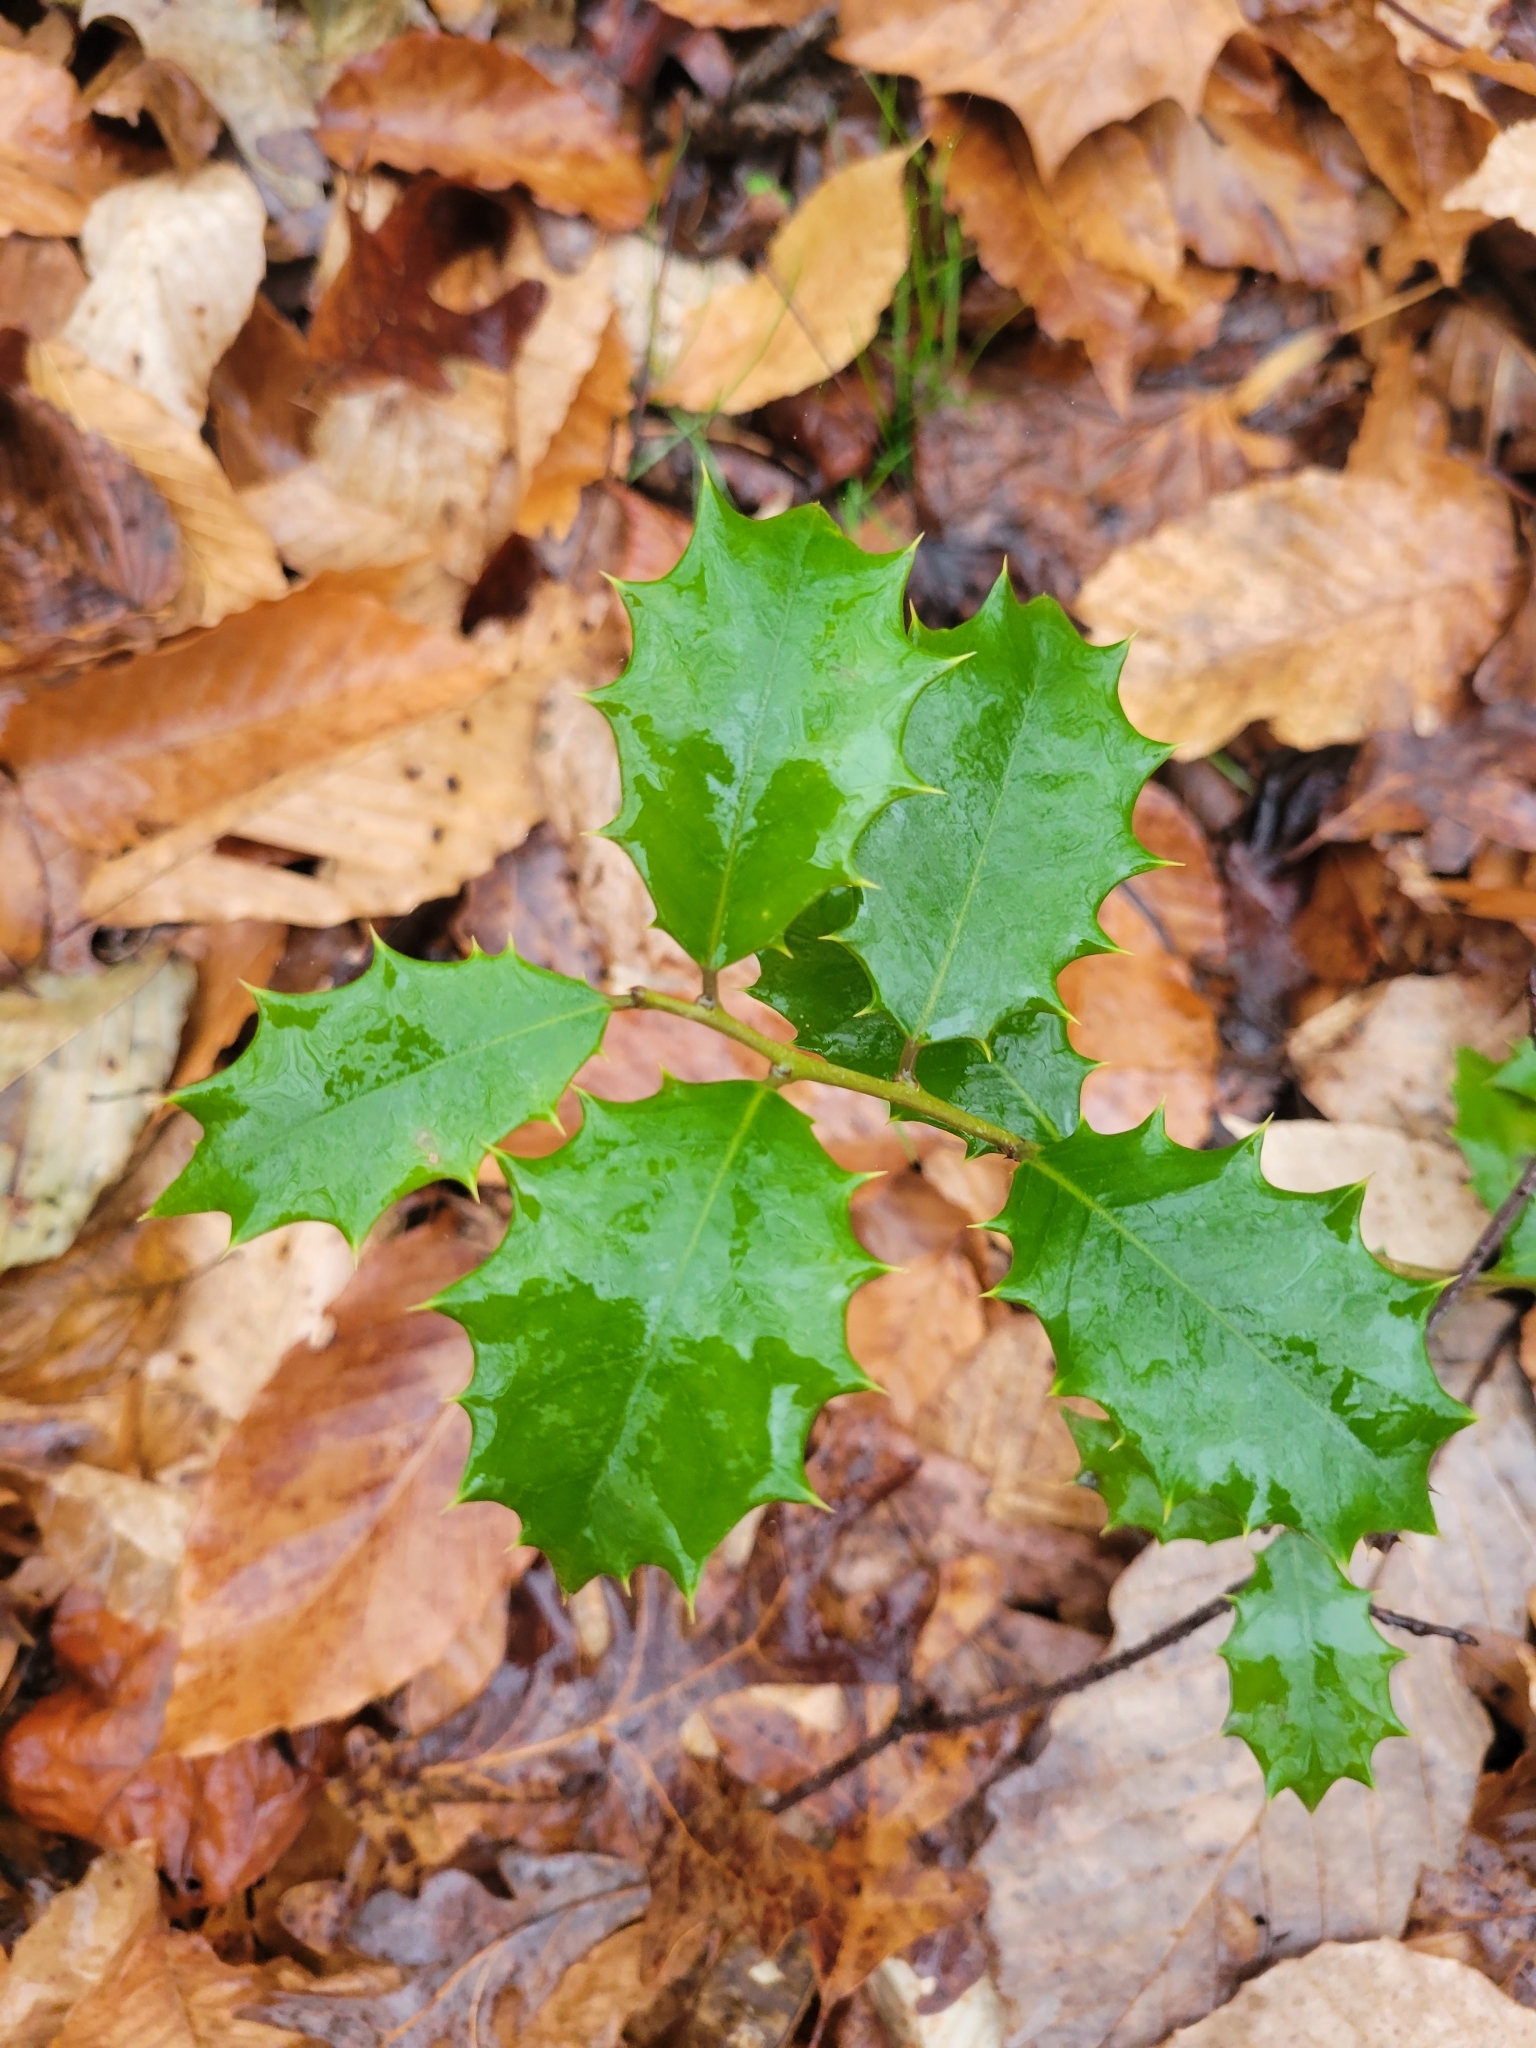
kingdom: Plantae
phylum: Tracheophyta
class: Magnoliopsida
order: Aquifoliales
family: Aquifoliaceae
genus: Ilex
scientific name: Ilex opaca
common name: American holly
